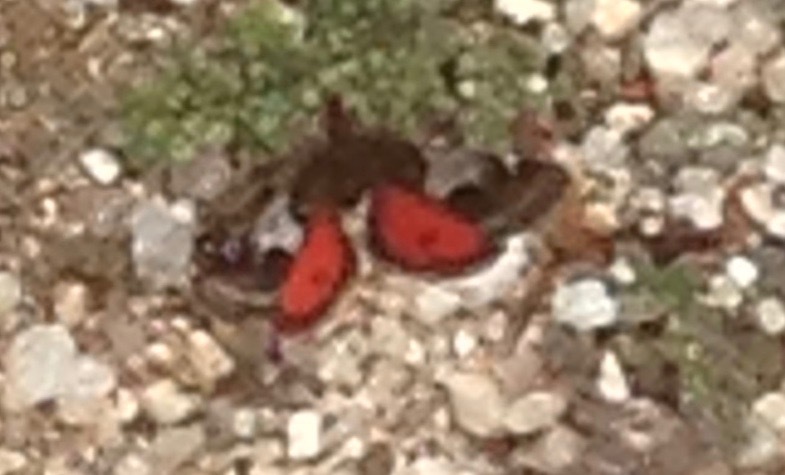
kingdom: Animalia
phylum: Arthropoda
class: Insecta
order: Lepidoptera
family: Crambidae
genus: Pyrausta
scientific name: Pyrausta dapalis
